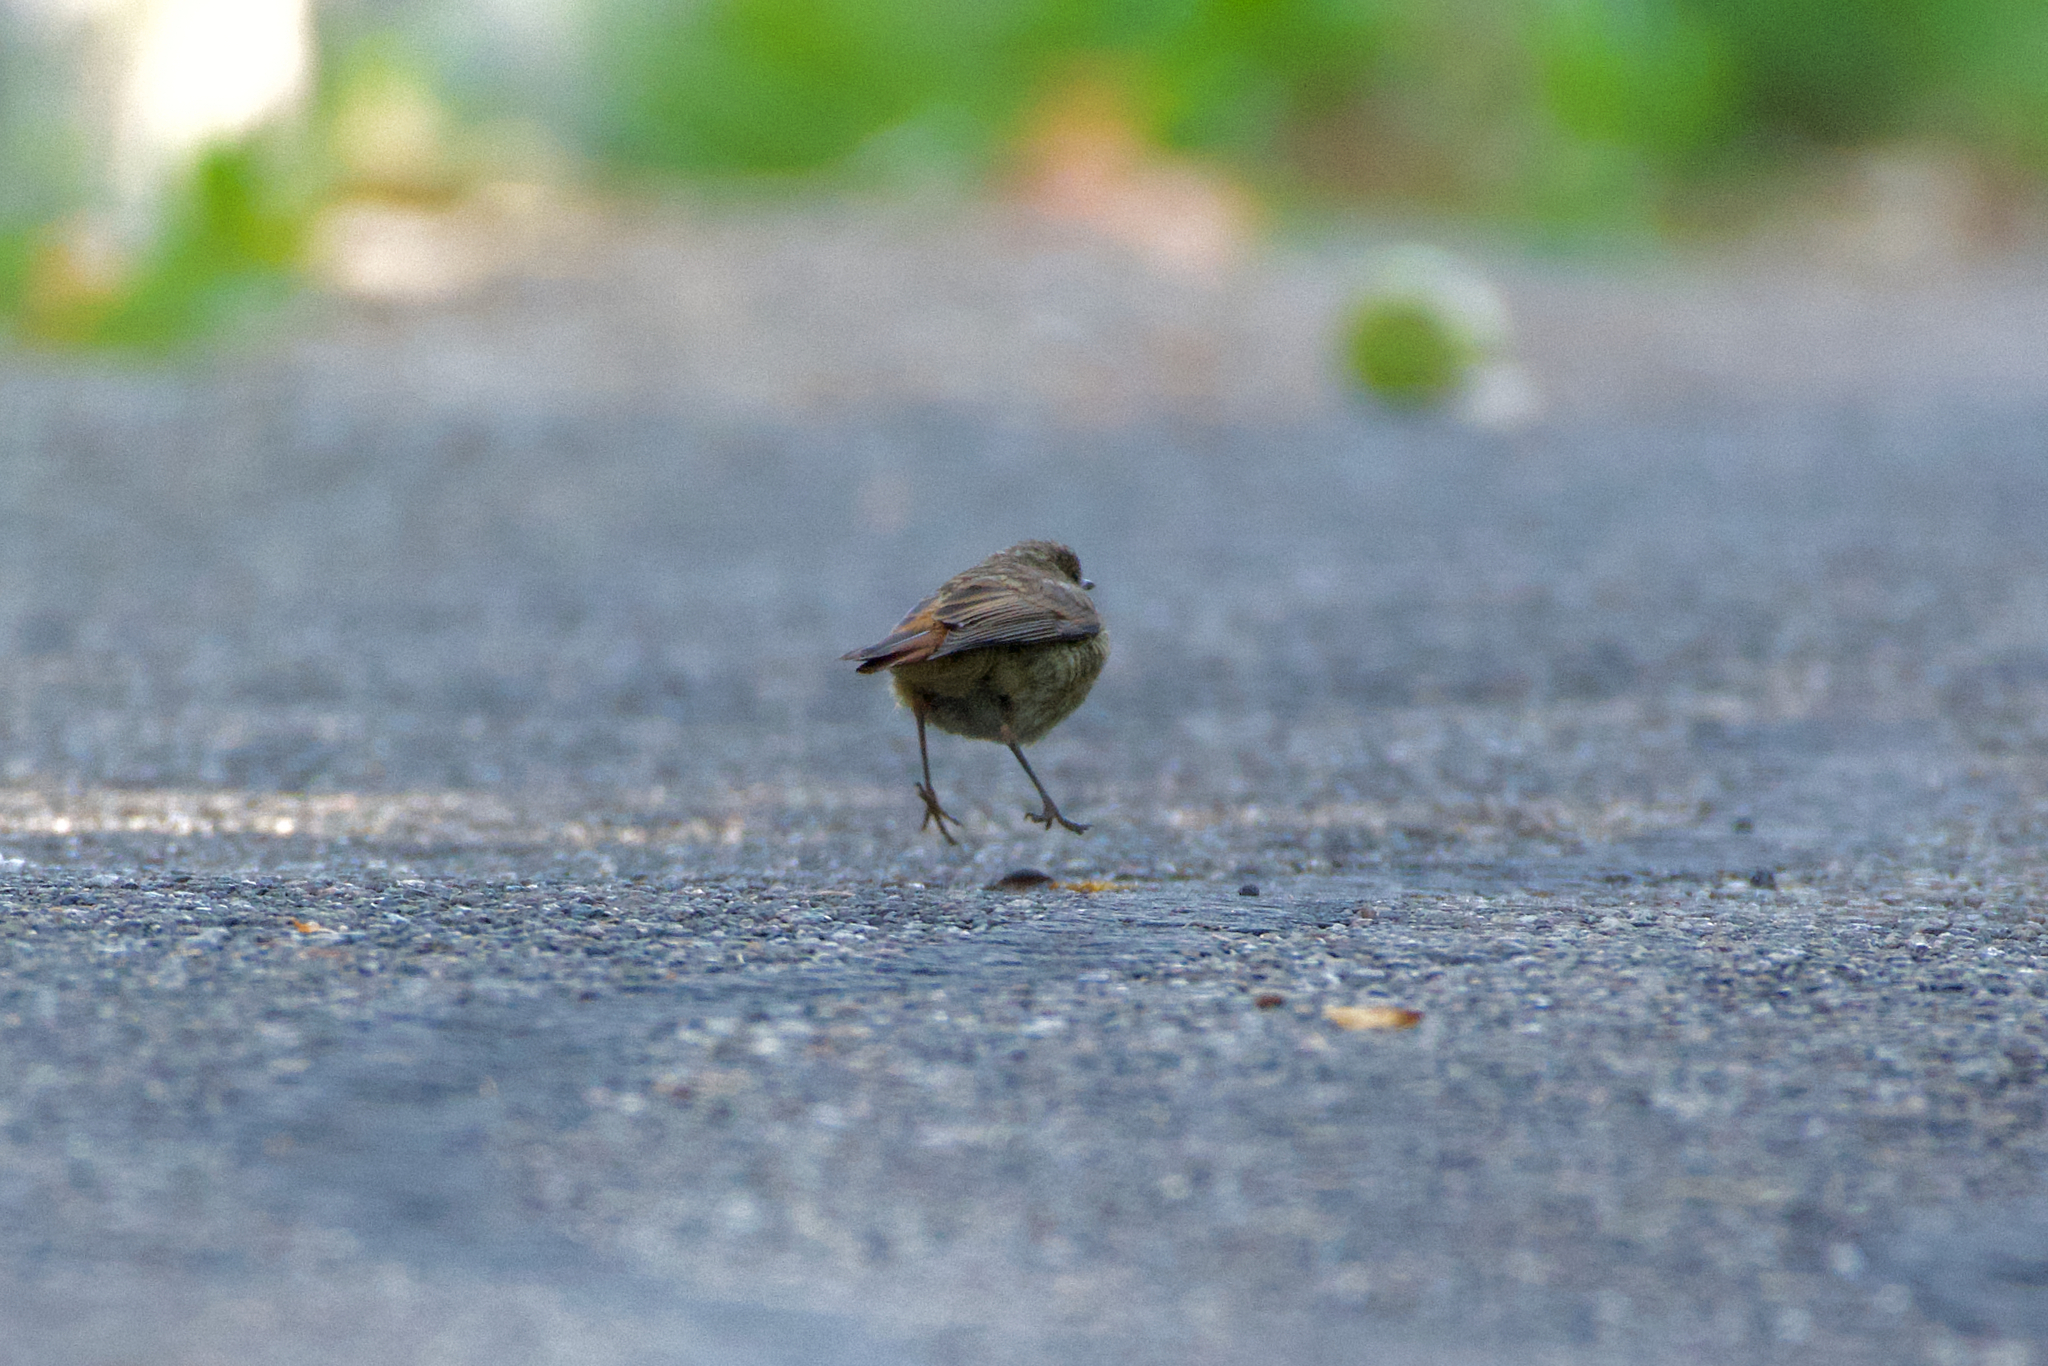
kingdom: Animalia
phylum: Chordata
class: Aves
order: Passeriformes
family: Muscicapidae
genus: Phoenicurus
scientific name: Phoenicurus phoenicurus
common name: Common redstart
